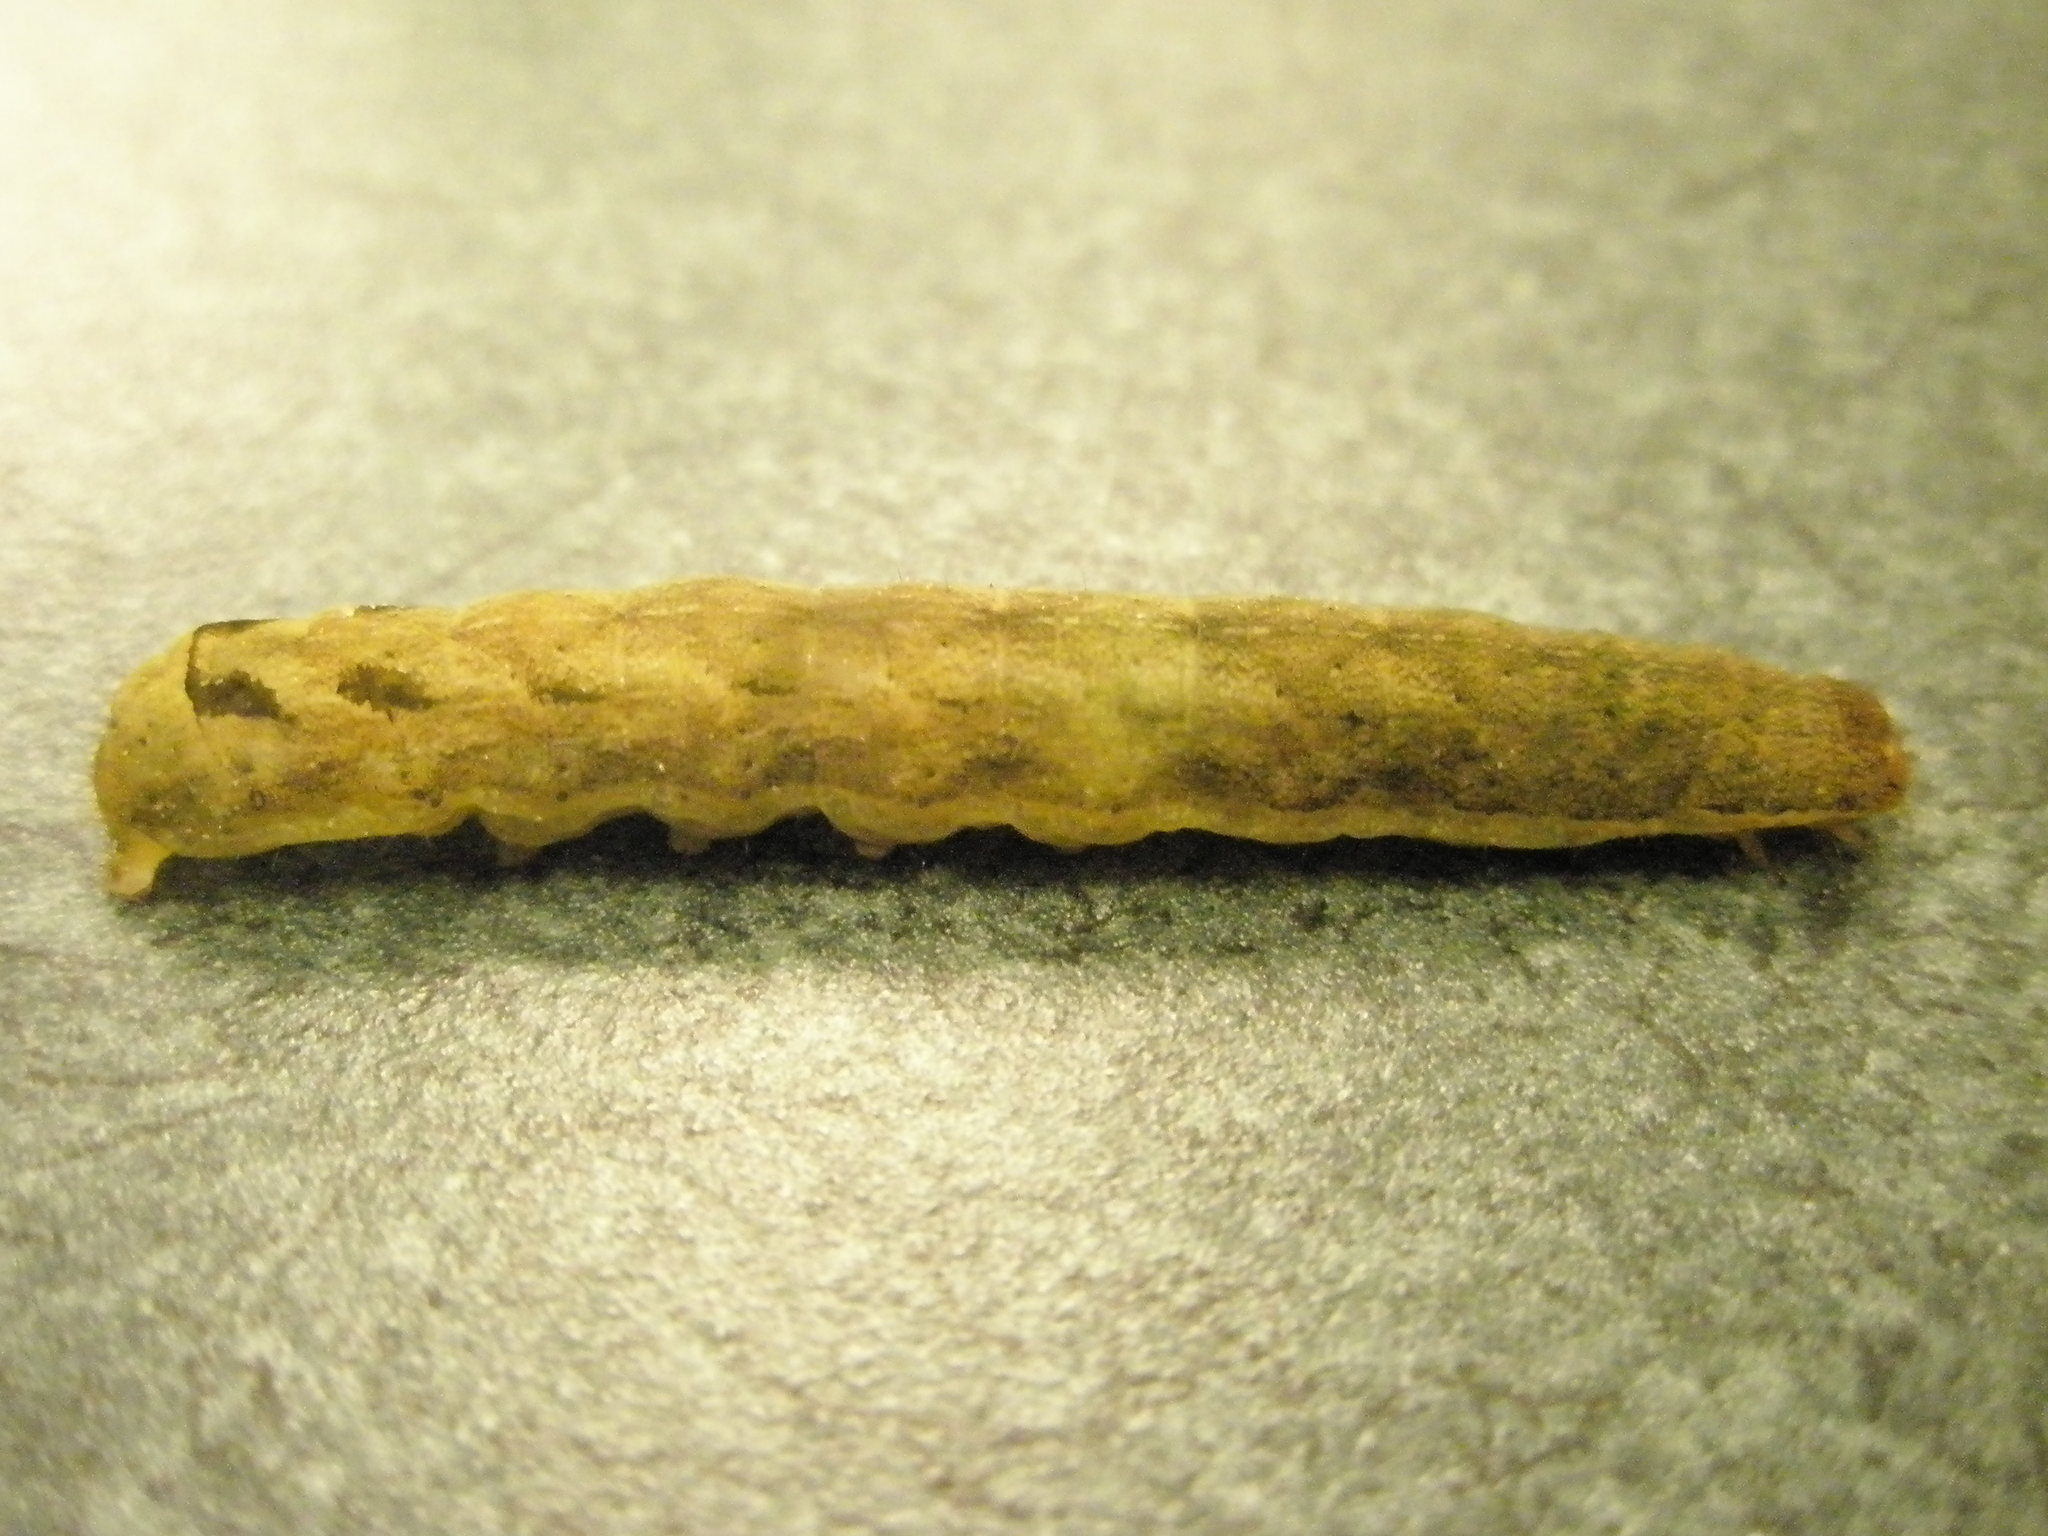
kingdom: Animalia
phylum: Arthropoda
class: Insecta
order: Lepidoptera
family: Noctuidae
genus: Orthodes
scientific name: Orthodes majuscula
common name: Rustic quaker
